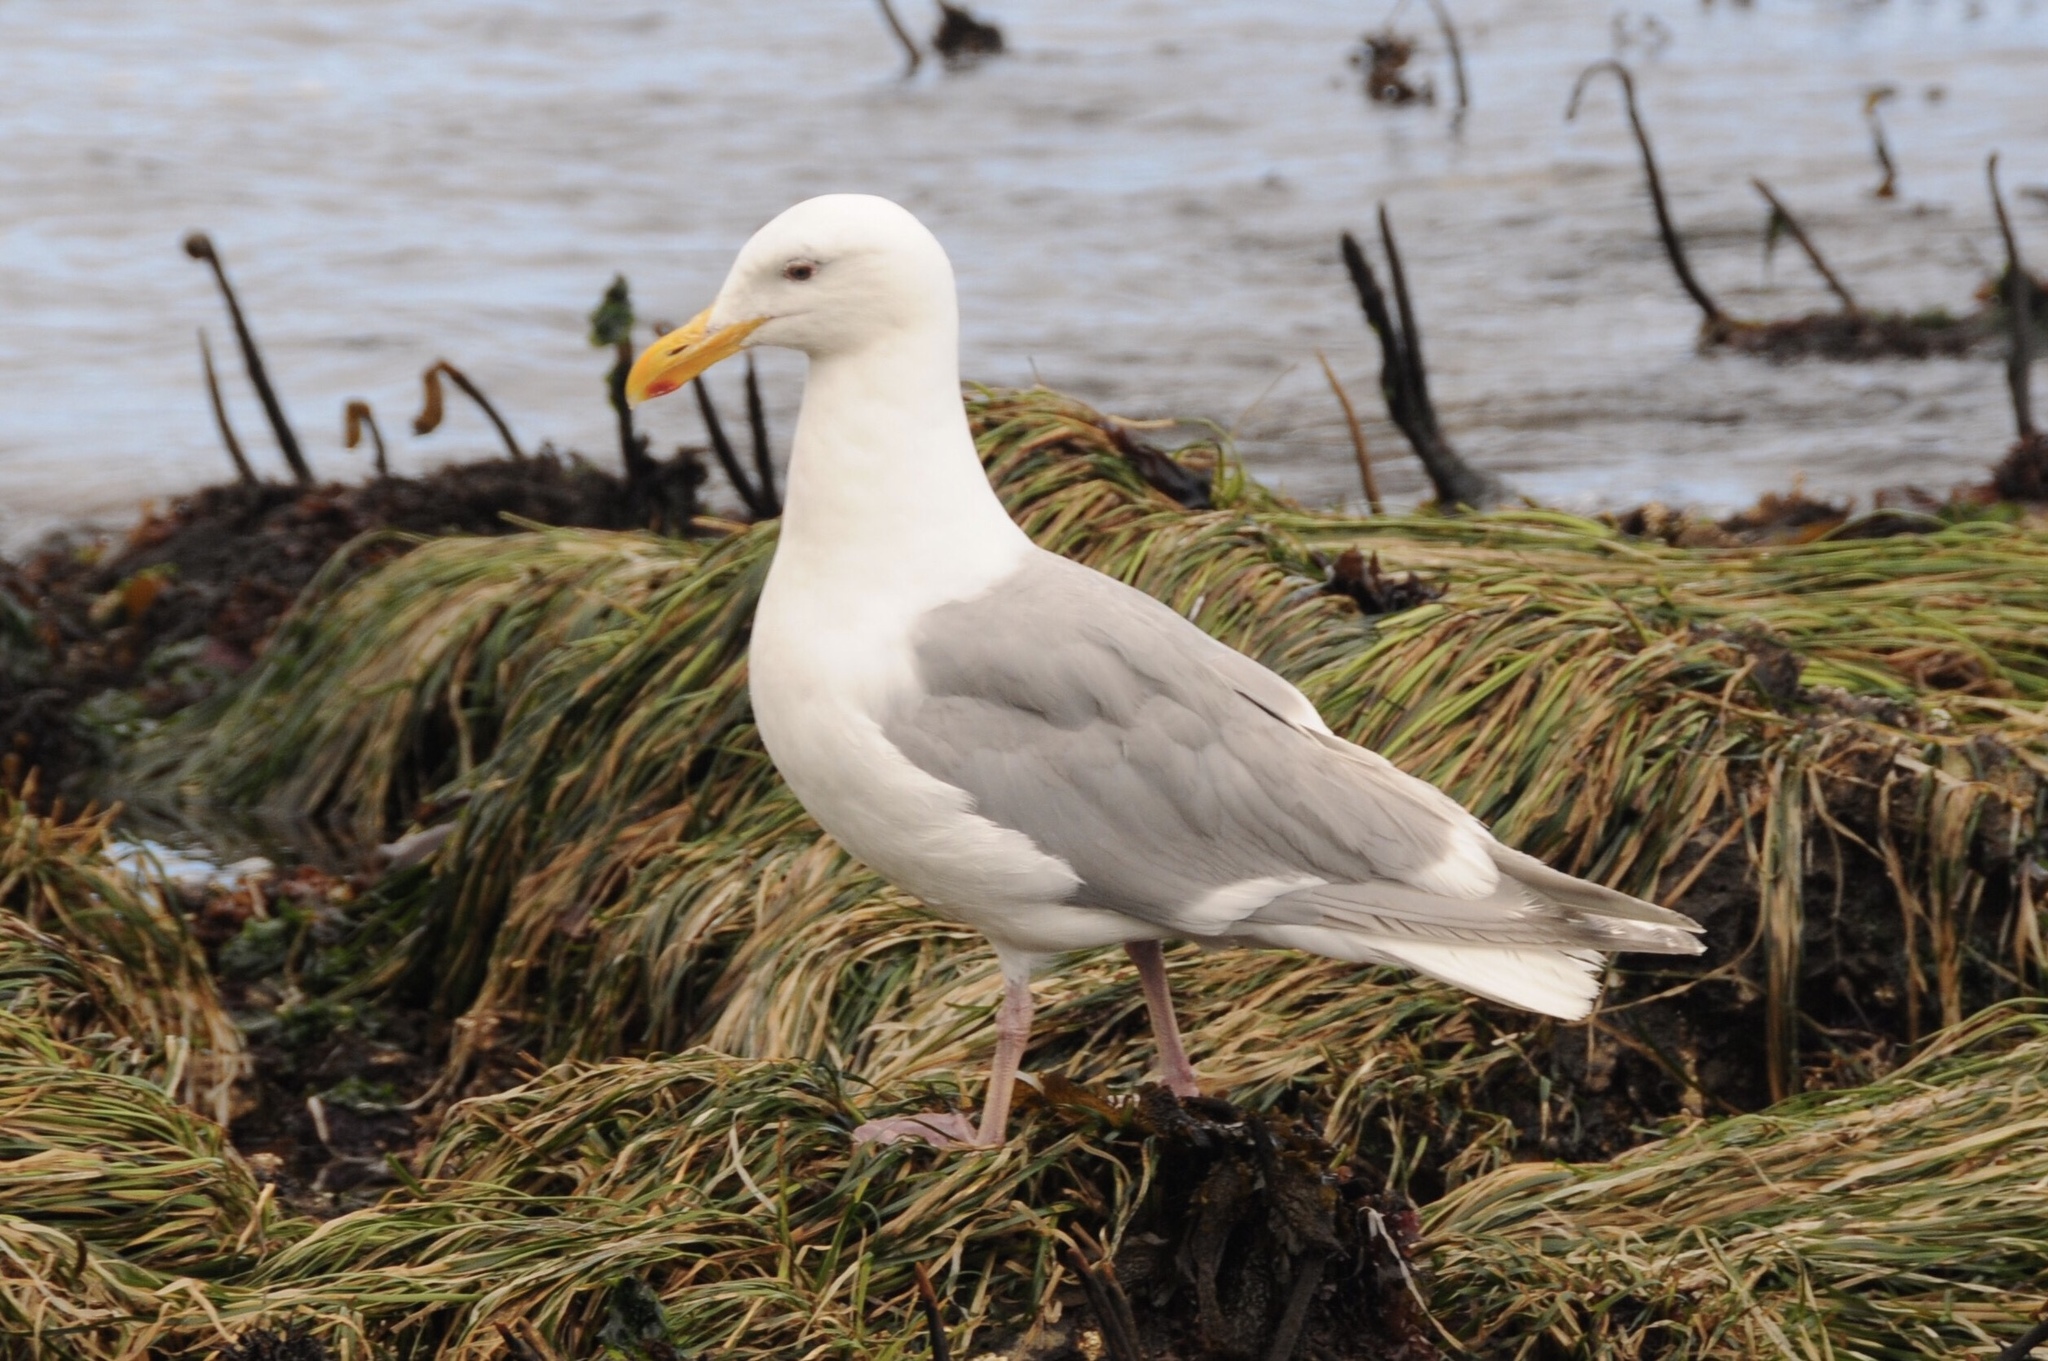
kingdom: Animalia
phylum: Chordata
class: Aves
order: Charadriiformes
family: Laridae
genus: Larus
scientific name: Larus glaucescens
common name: Glaucous-winged gull
